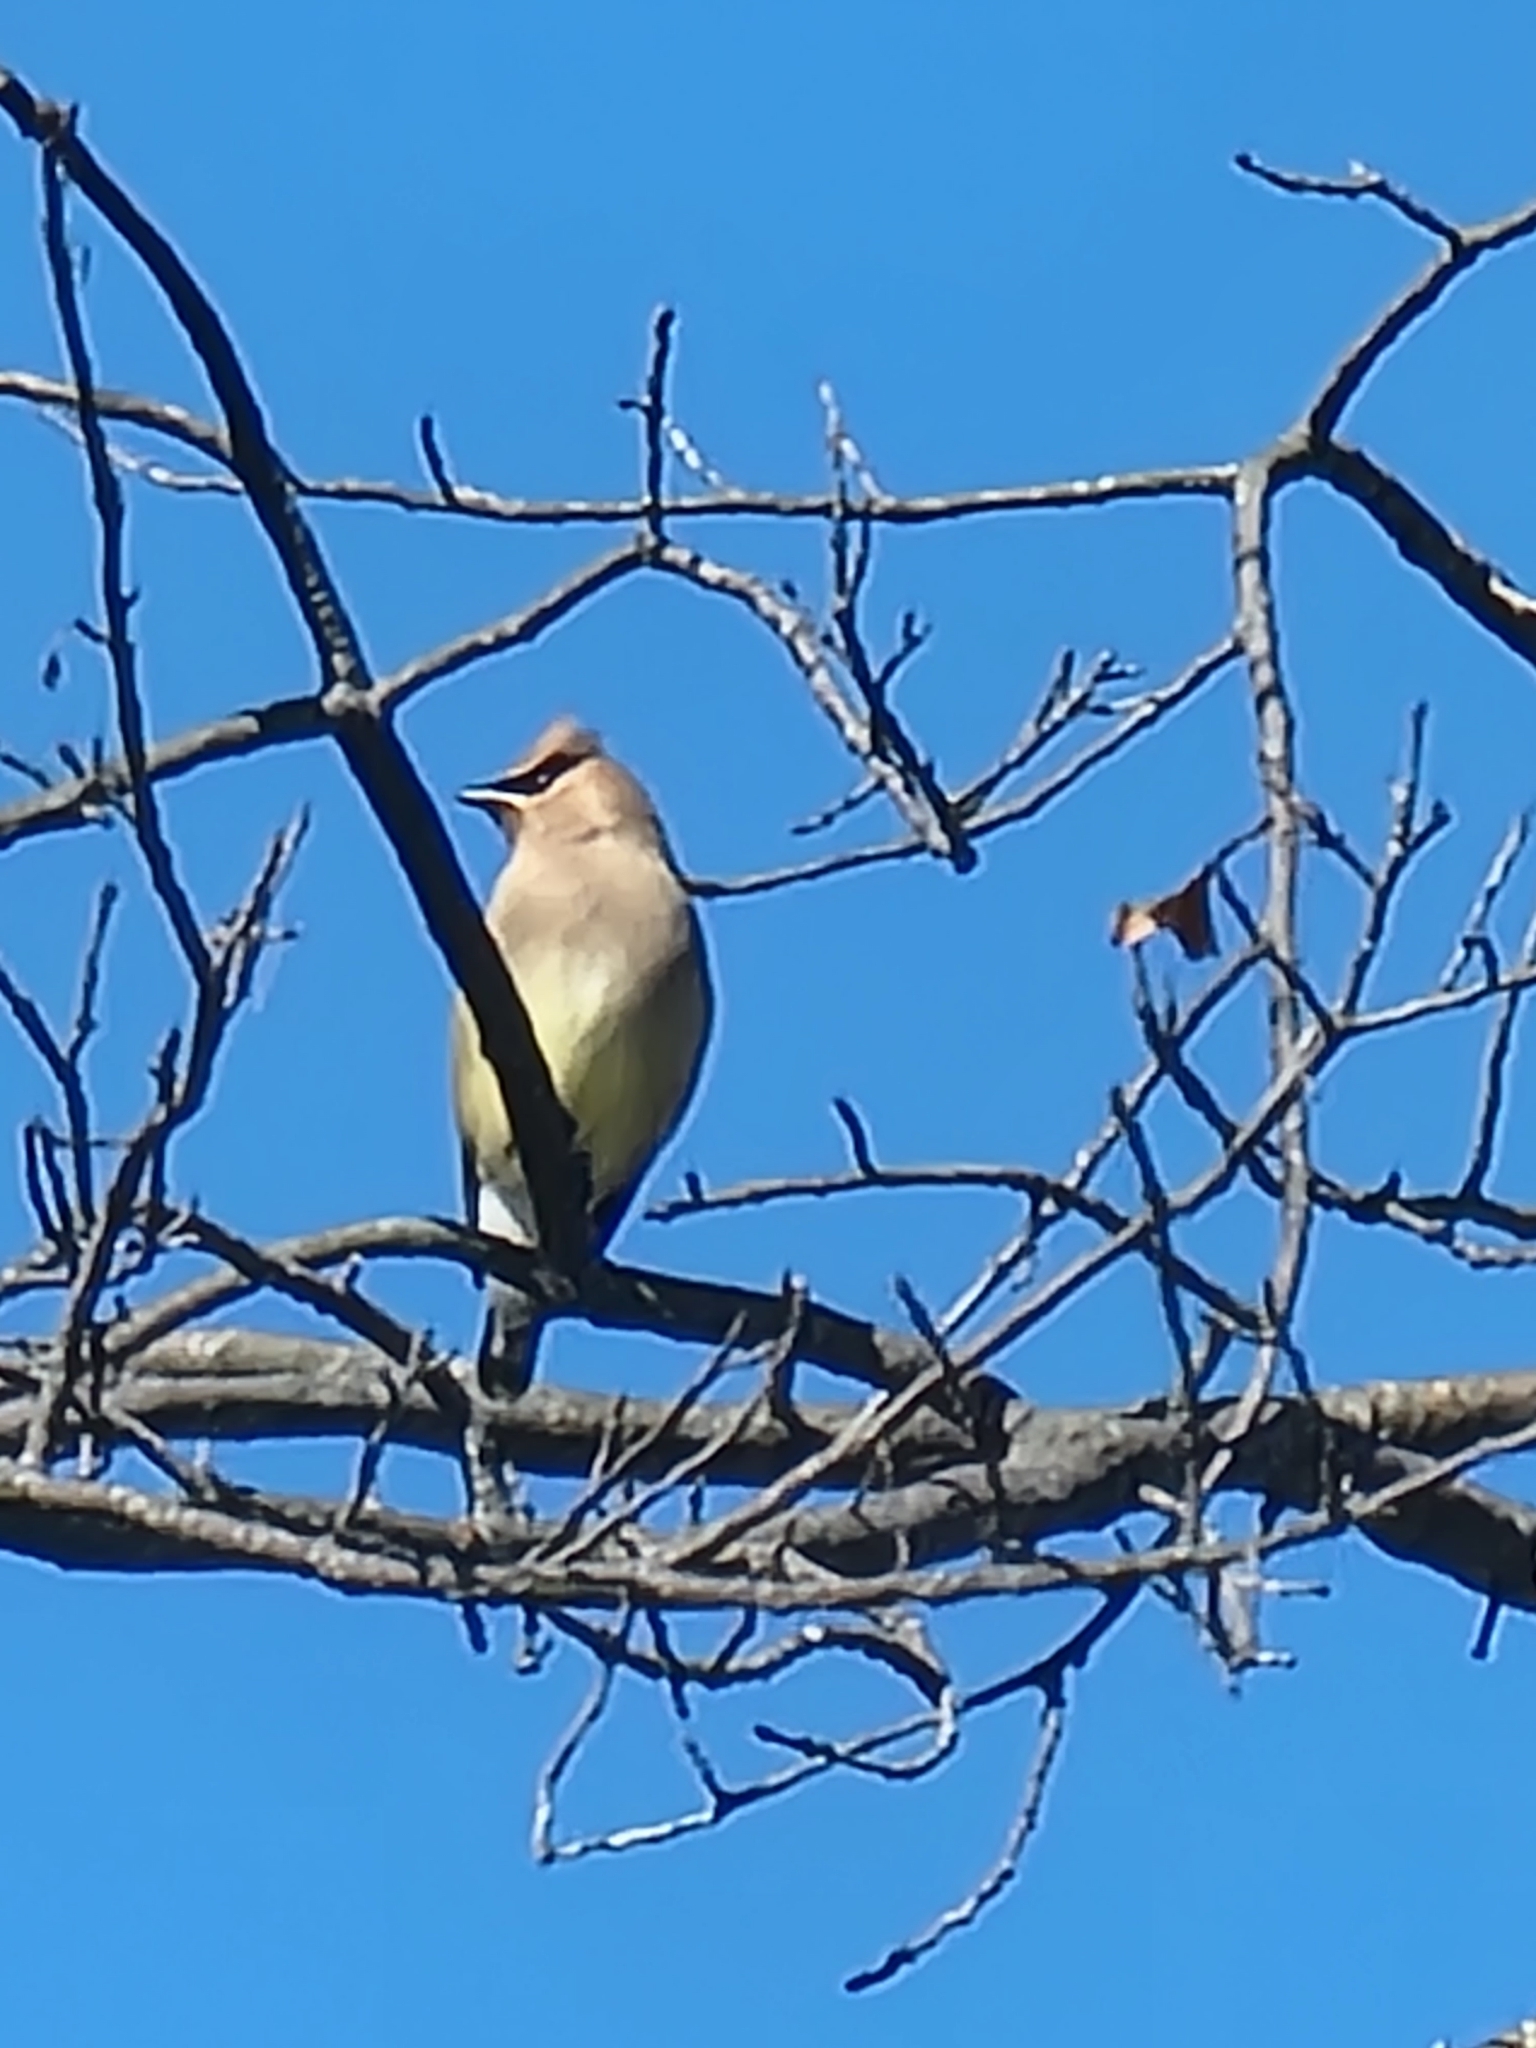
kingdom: Animalia
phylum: Chordata
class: Aves
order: Passeriformes
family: Bombycillidae
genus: Bombycilla
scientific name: Bombycilla cedrorum
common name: Cedar waxwing
